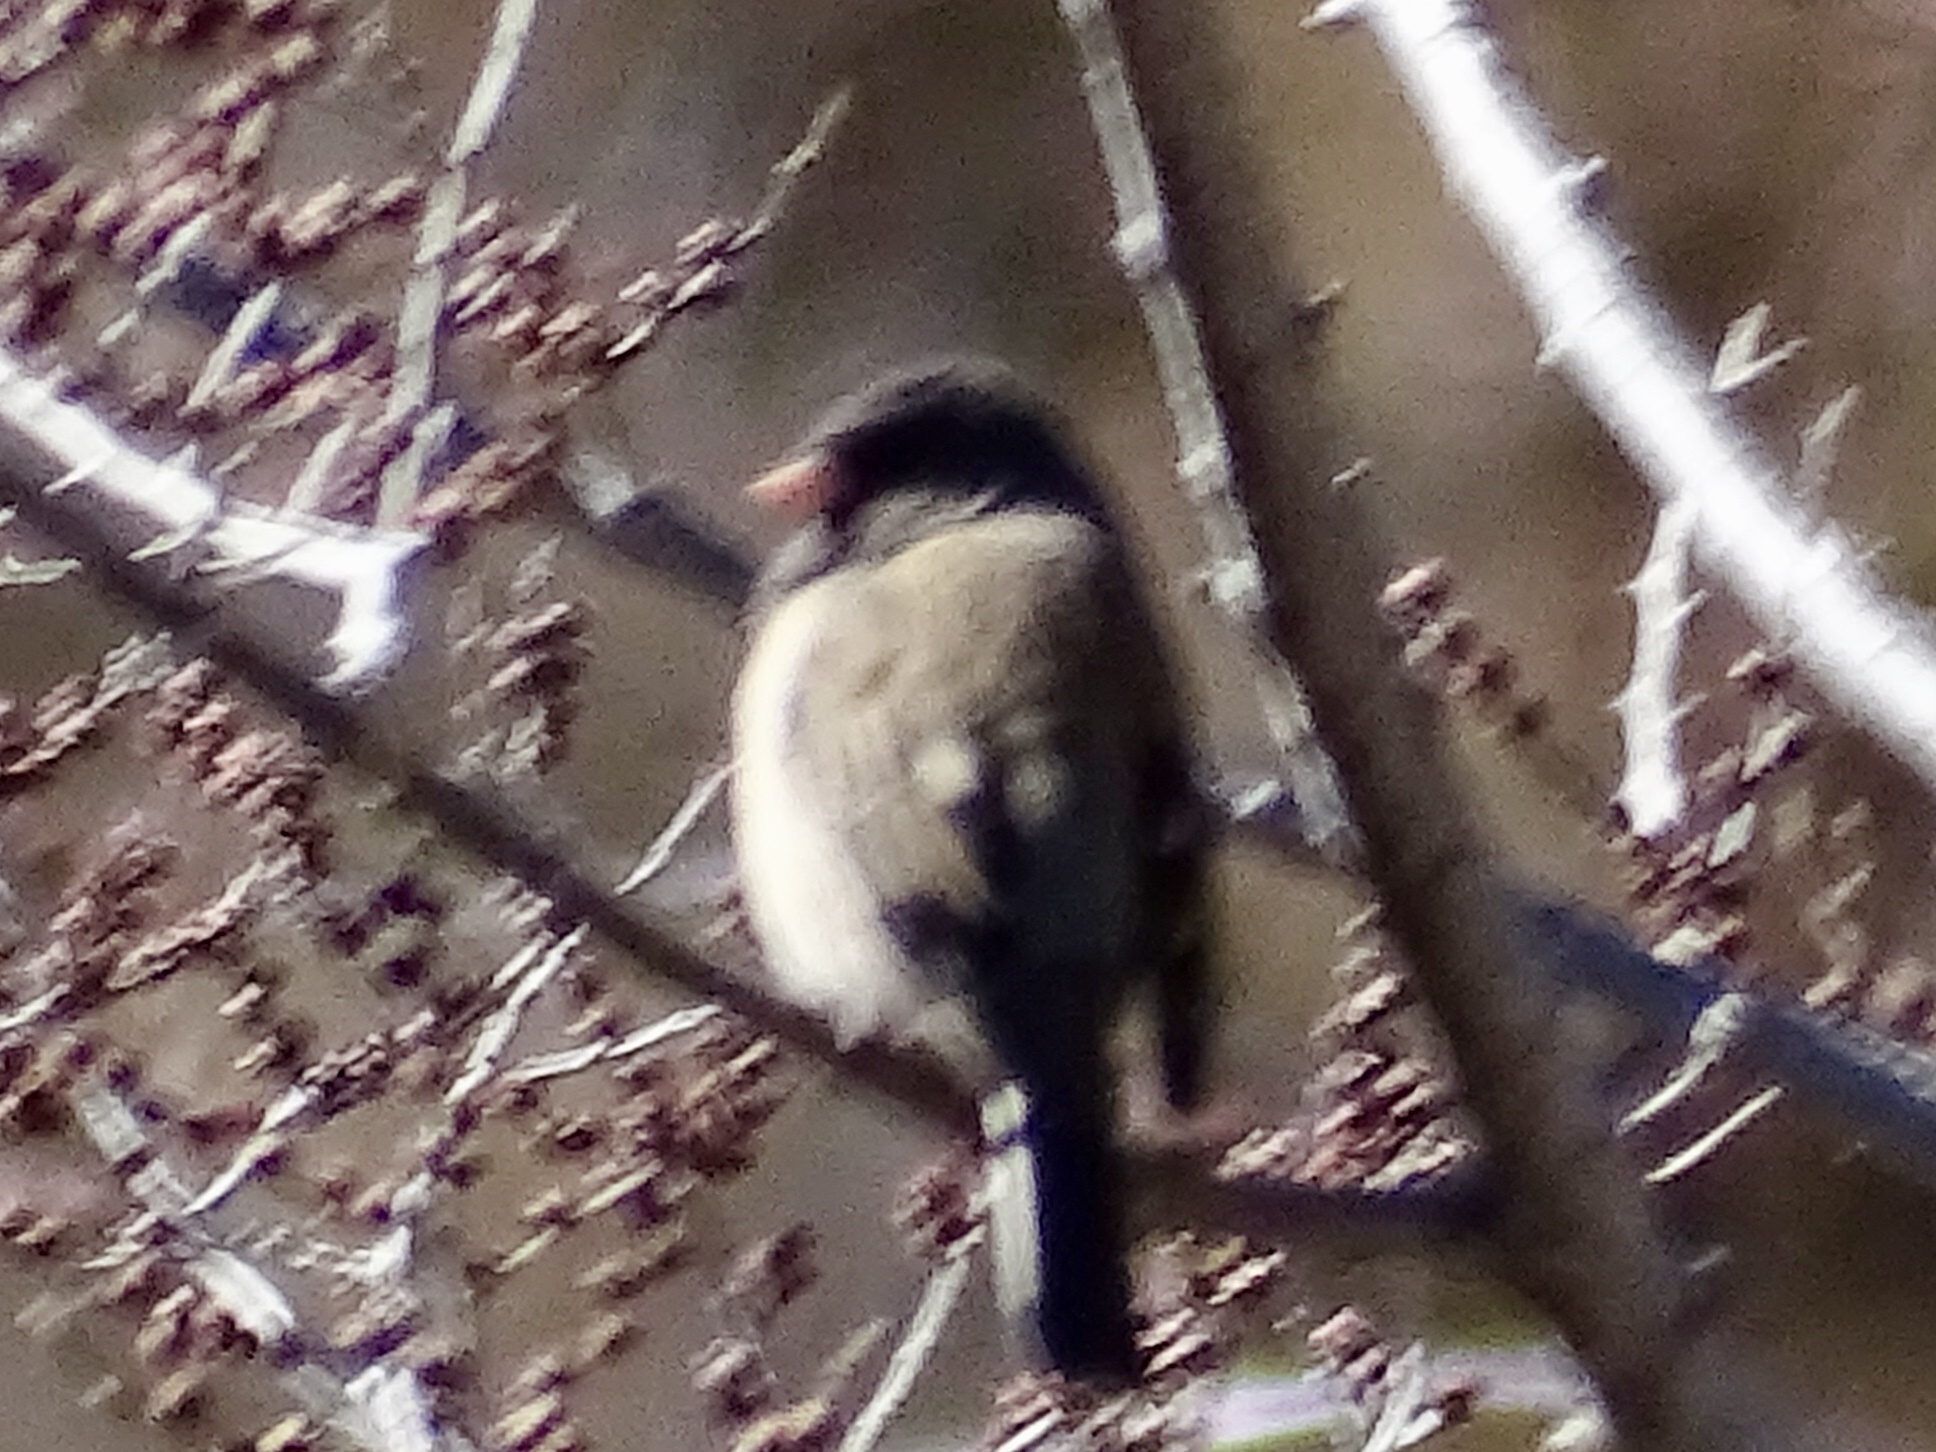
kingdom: Animalia
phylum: Chordata
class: Aves
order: Passeriformes
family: Passerellidae
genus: Junco
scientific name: Junco hyemalis
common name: Dark-eyed junco
